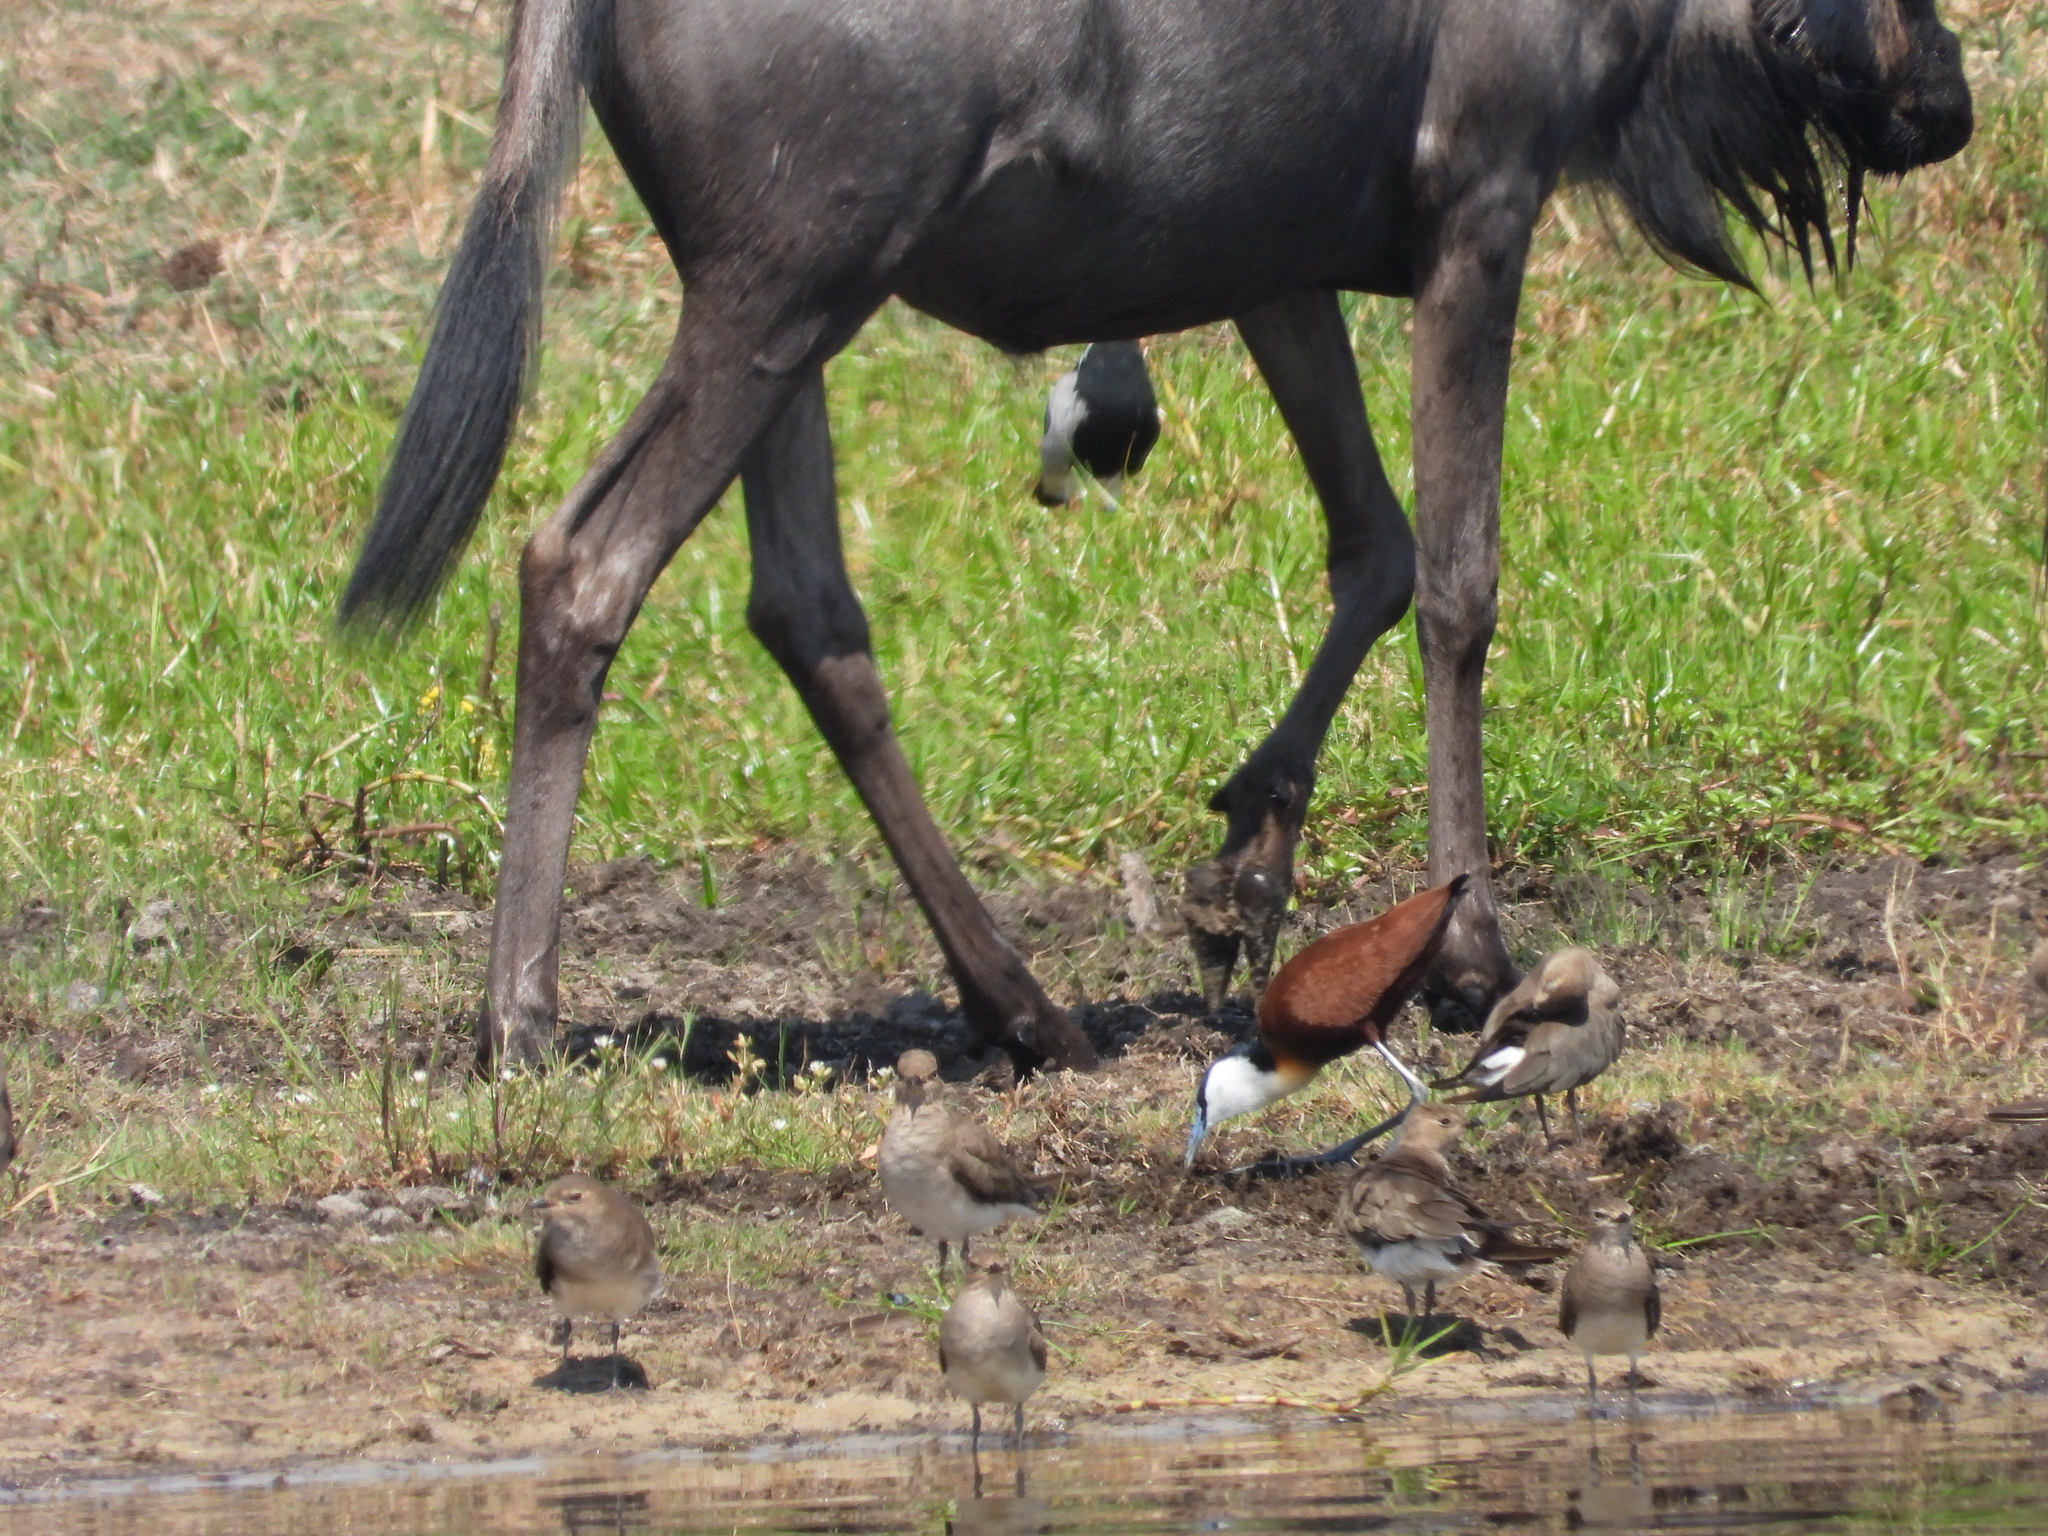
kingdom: Animalia
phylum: Chordata
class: Aves
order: Charadriiformes
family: Jacanidae
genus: Actophilornis
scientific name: Actophilornis africanus
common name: African jacana
